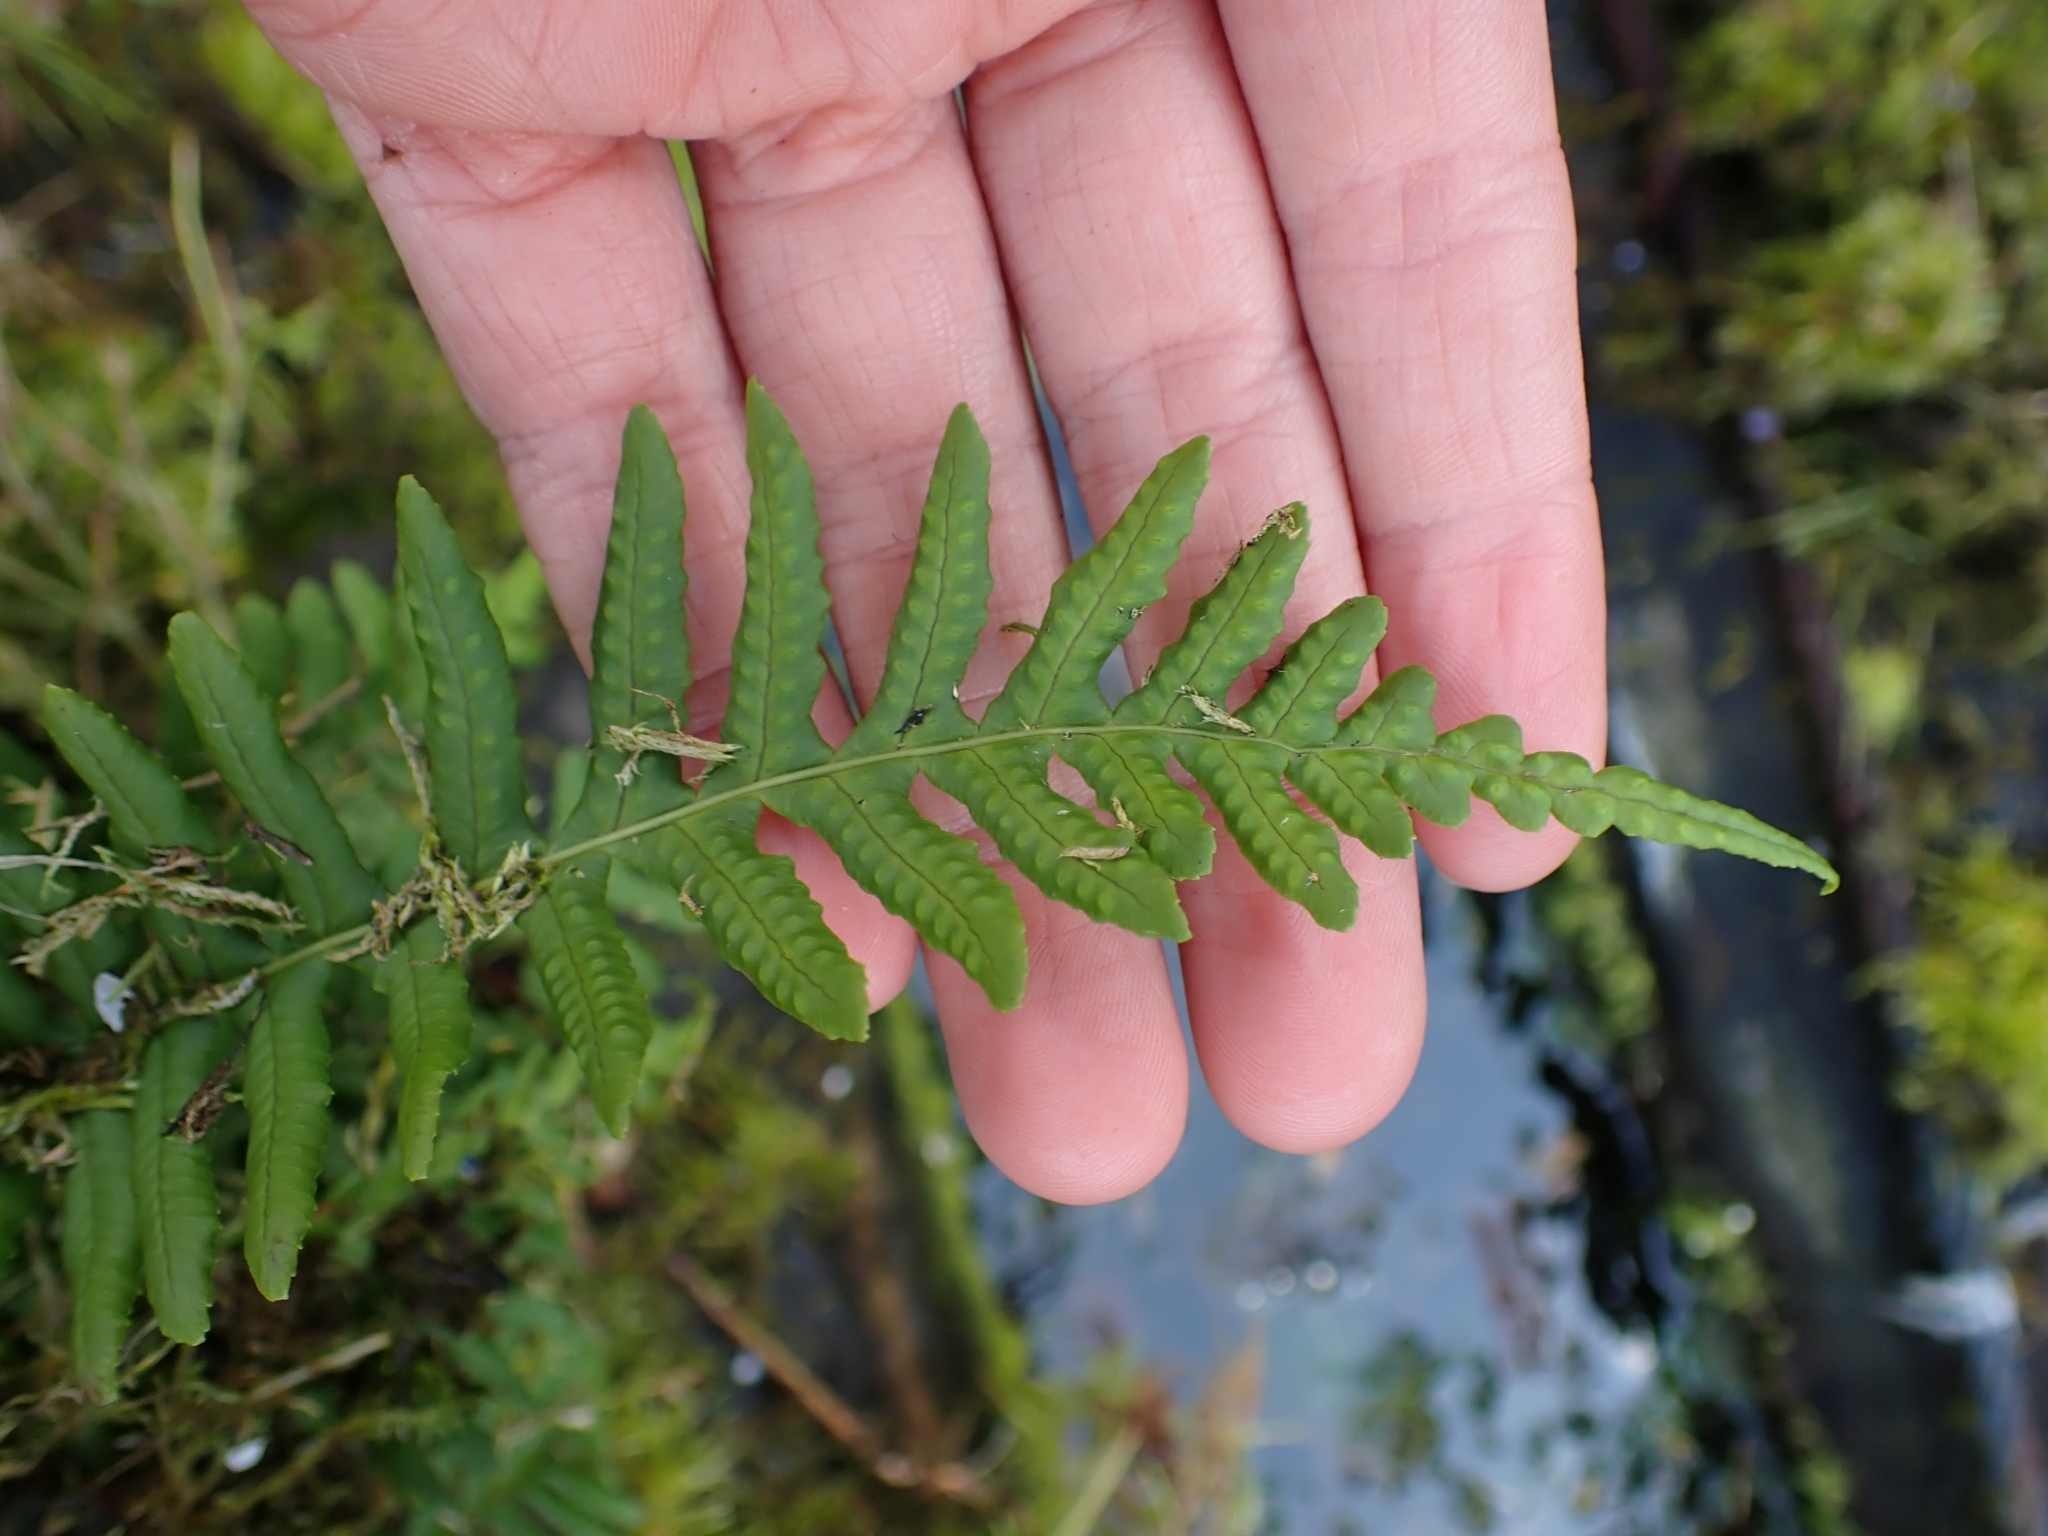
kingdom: Plantae
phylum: Tracheophyta
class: Polypodiopsida
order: Polypodiales
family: Polypodiaceae
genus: Polypodium
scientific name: Polypodium glycyrrhiza
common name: Licorice fern
